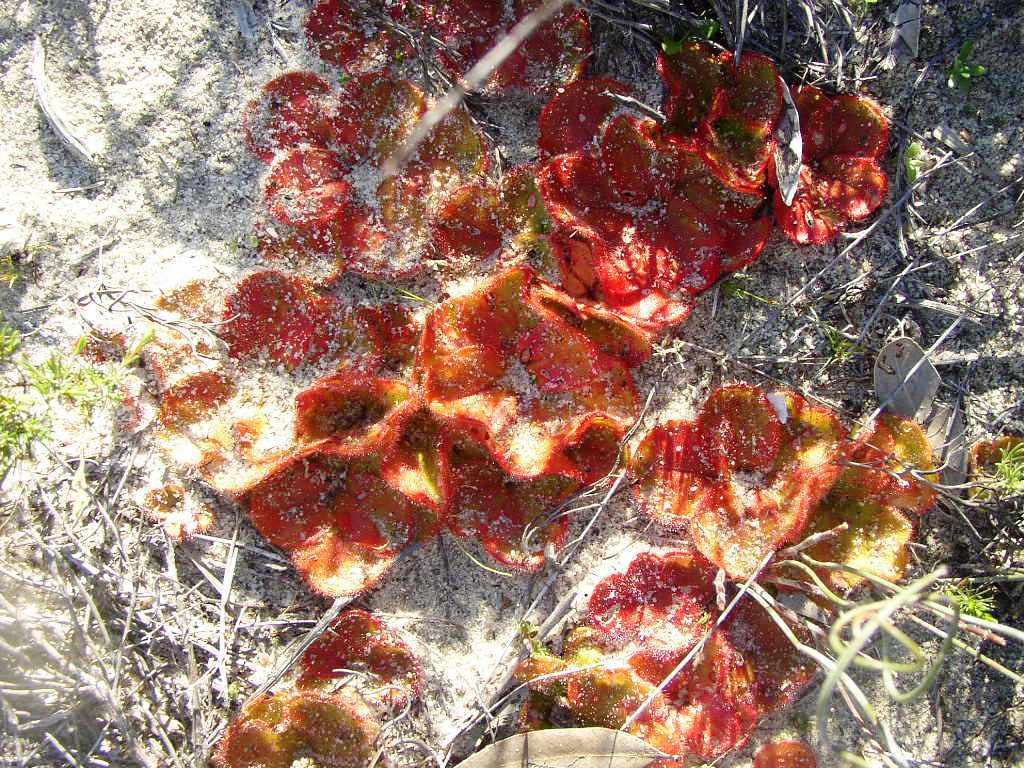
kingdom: Plantae
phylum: Tracheophyta
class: Magnoliopsida
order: Caryophyllales
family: Droseraceae
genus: Drosera
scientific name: Drosera erythrorhiza
